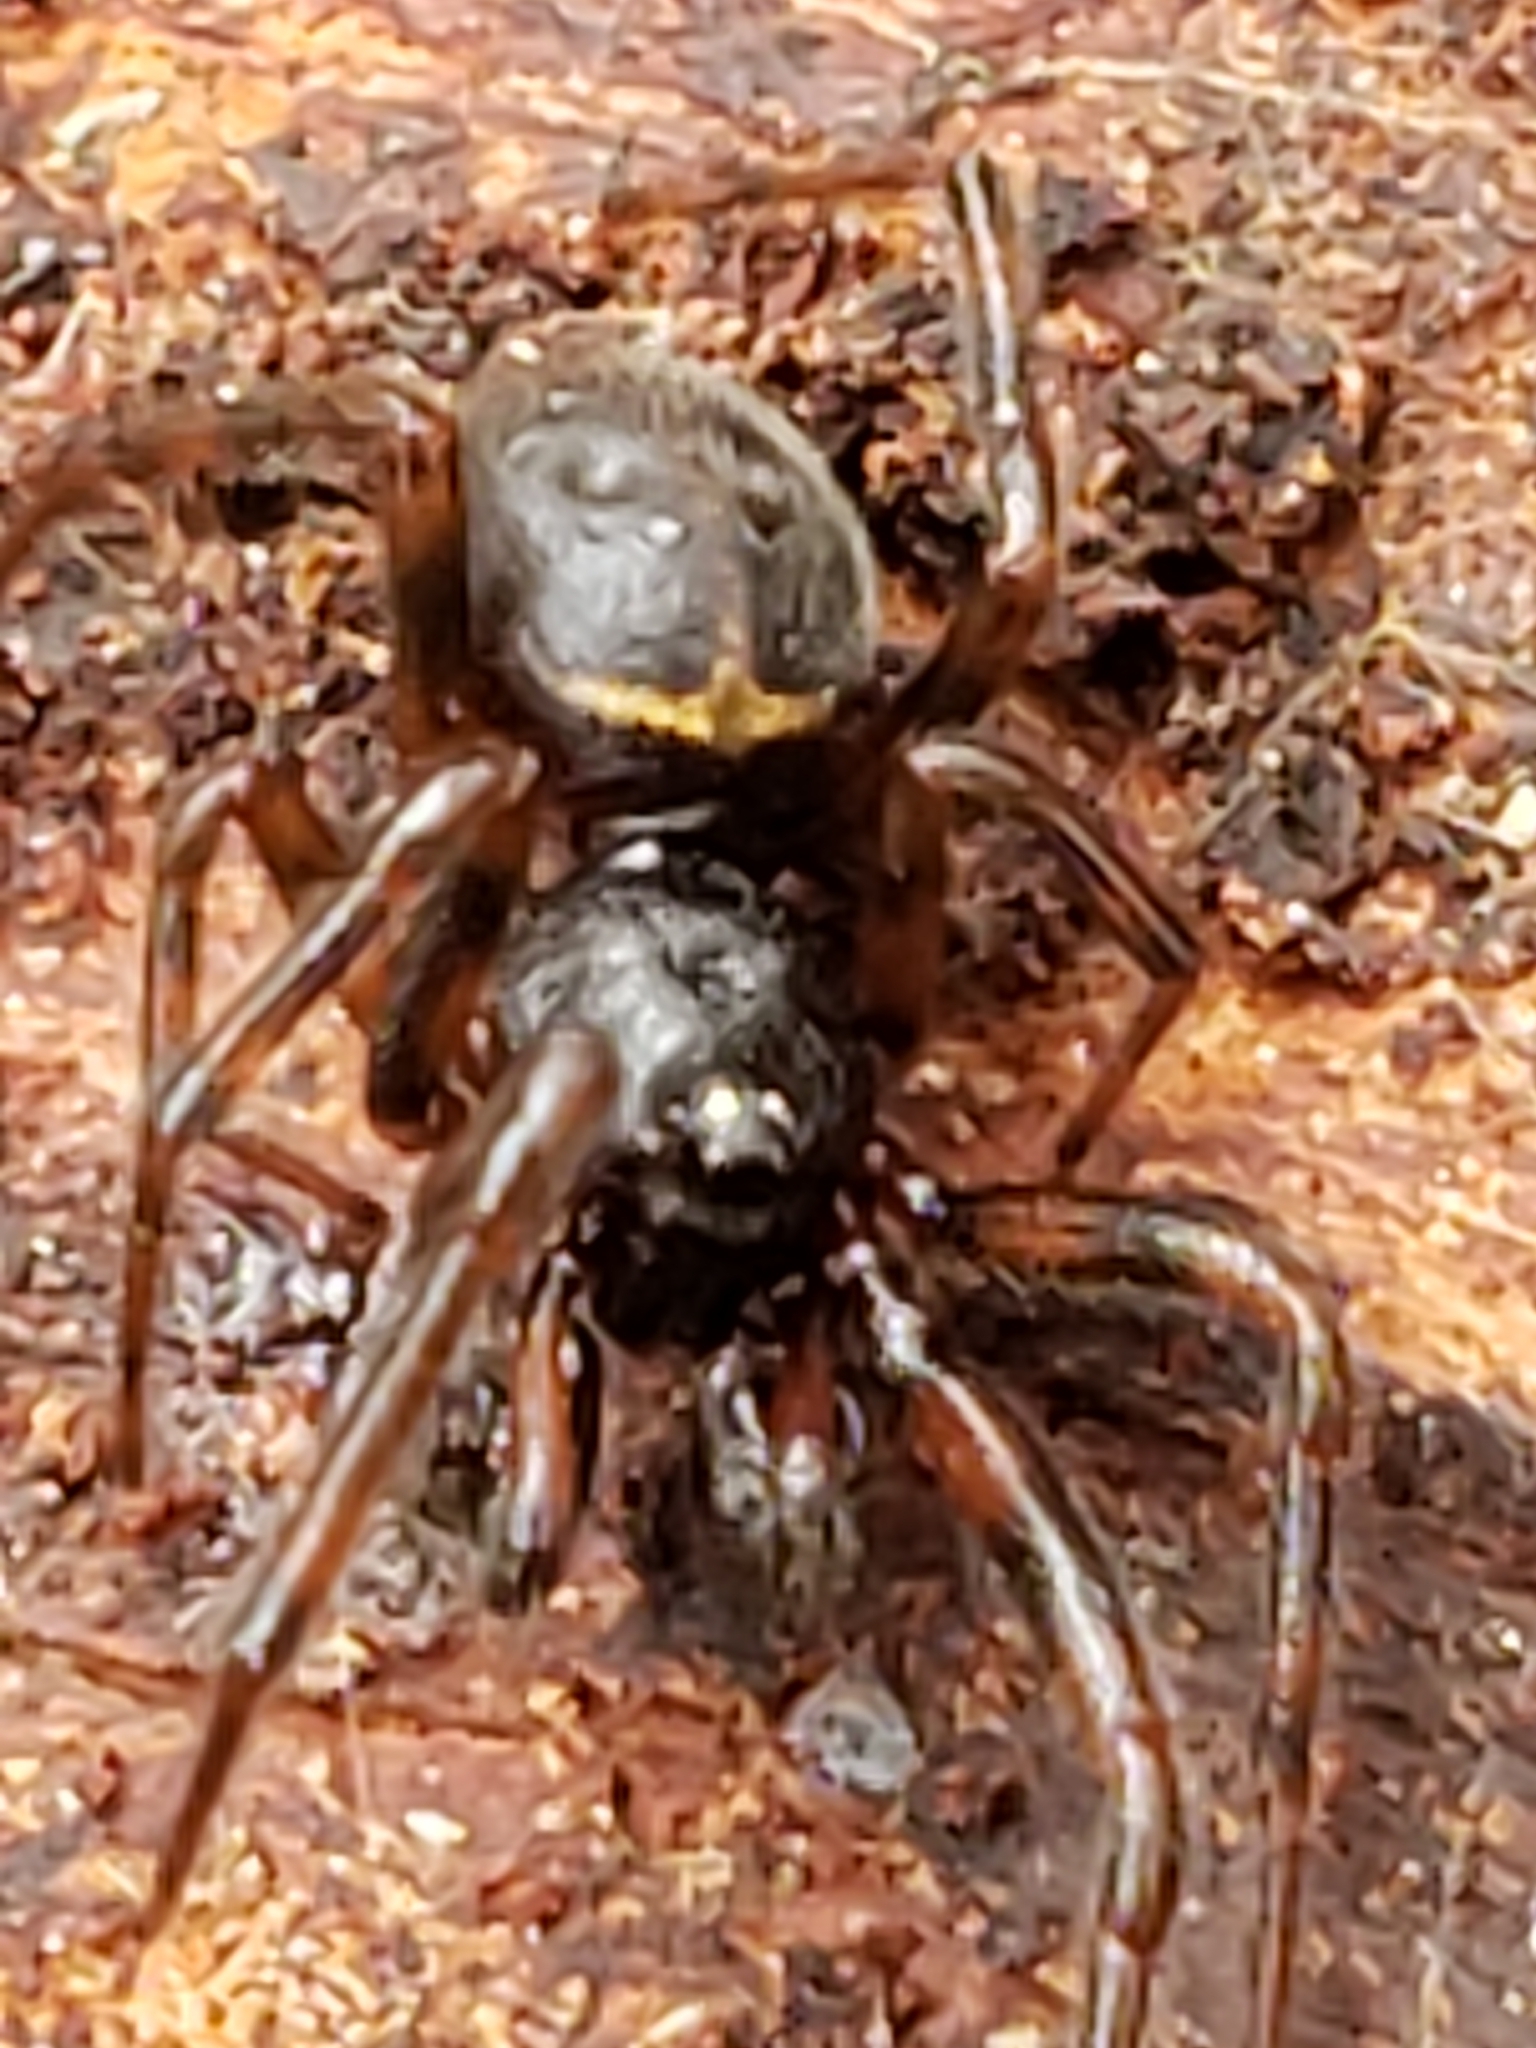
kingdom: Animalia
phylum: Arthropoda
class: Arachnida
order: Araneae
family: Theridiidae
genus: Steatoda
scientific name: Steatoda borealis
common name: Boreal combfoot
